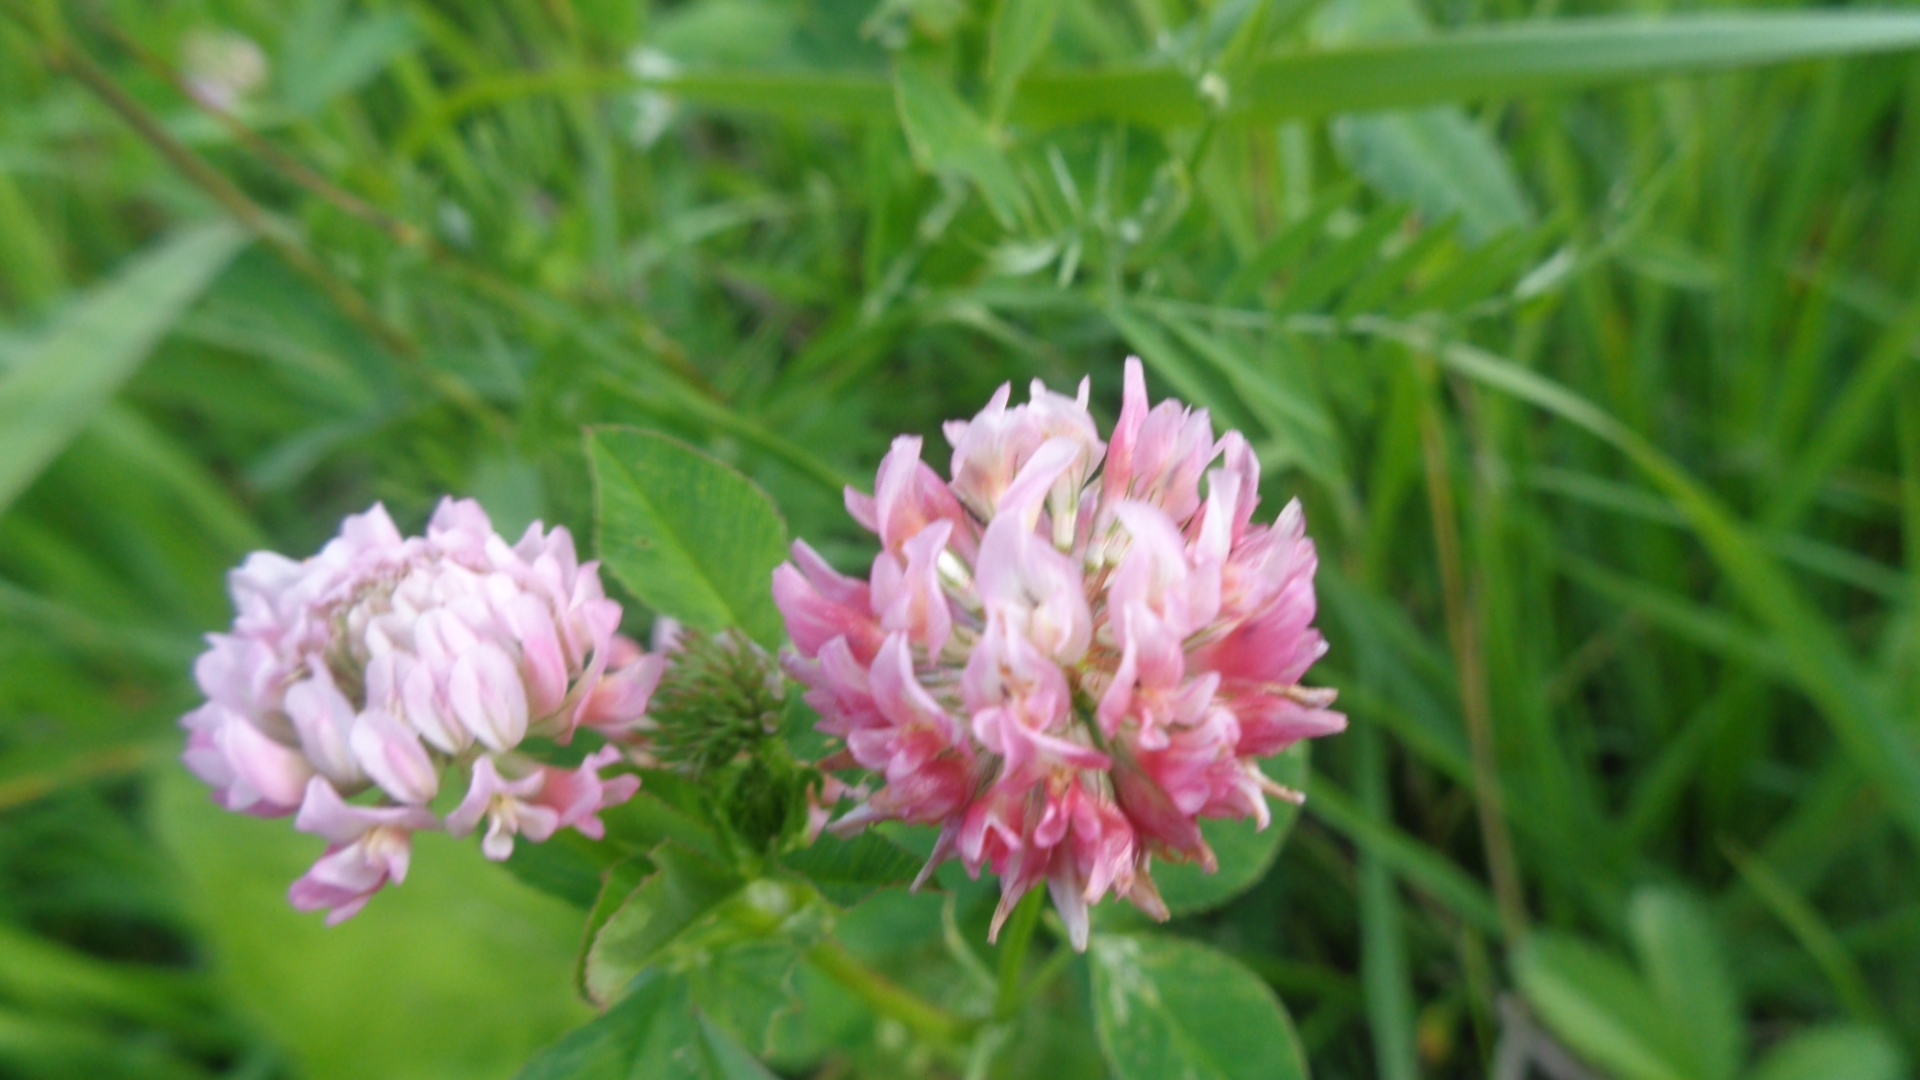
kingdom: Plantae
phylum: Tracheophyta
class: Magnoliopsida
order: Fabales
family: Fabaceae
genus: Trifolium
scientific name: Trifolium hybridum
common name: Alsike clover
